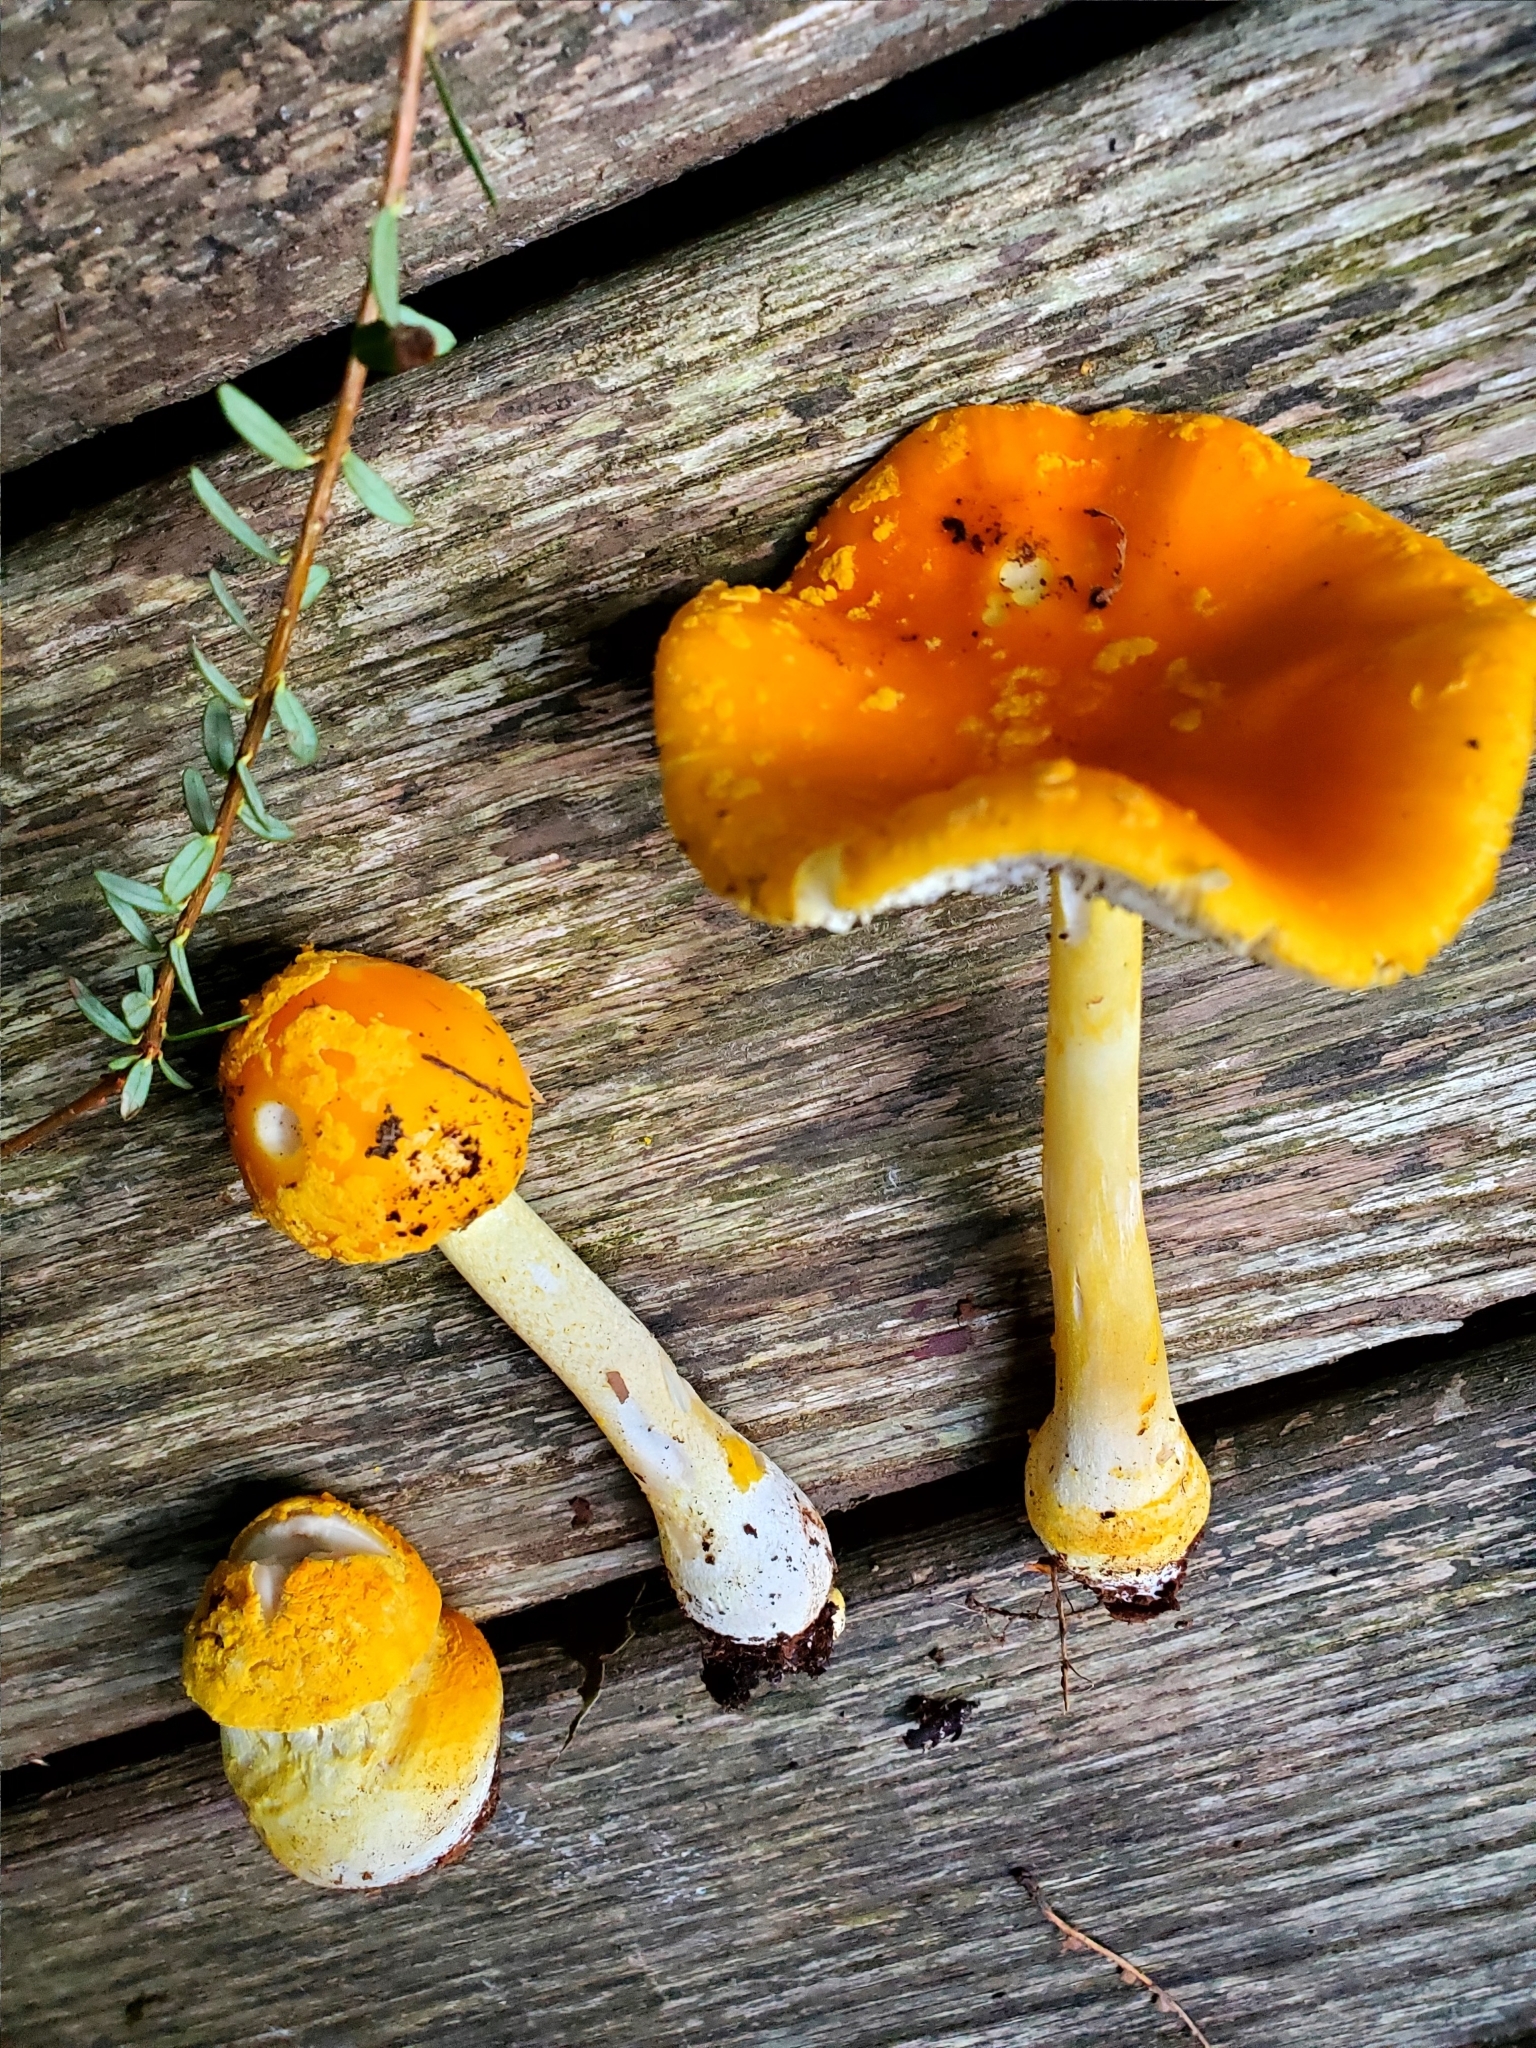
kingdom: Fungi
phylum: Basidiomycota
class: Agaricomycetes
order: Agaricales
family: Amanitaceae
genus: Amanita
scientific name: Amanita flavoconia
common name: Yellow patches
